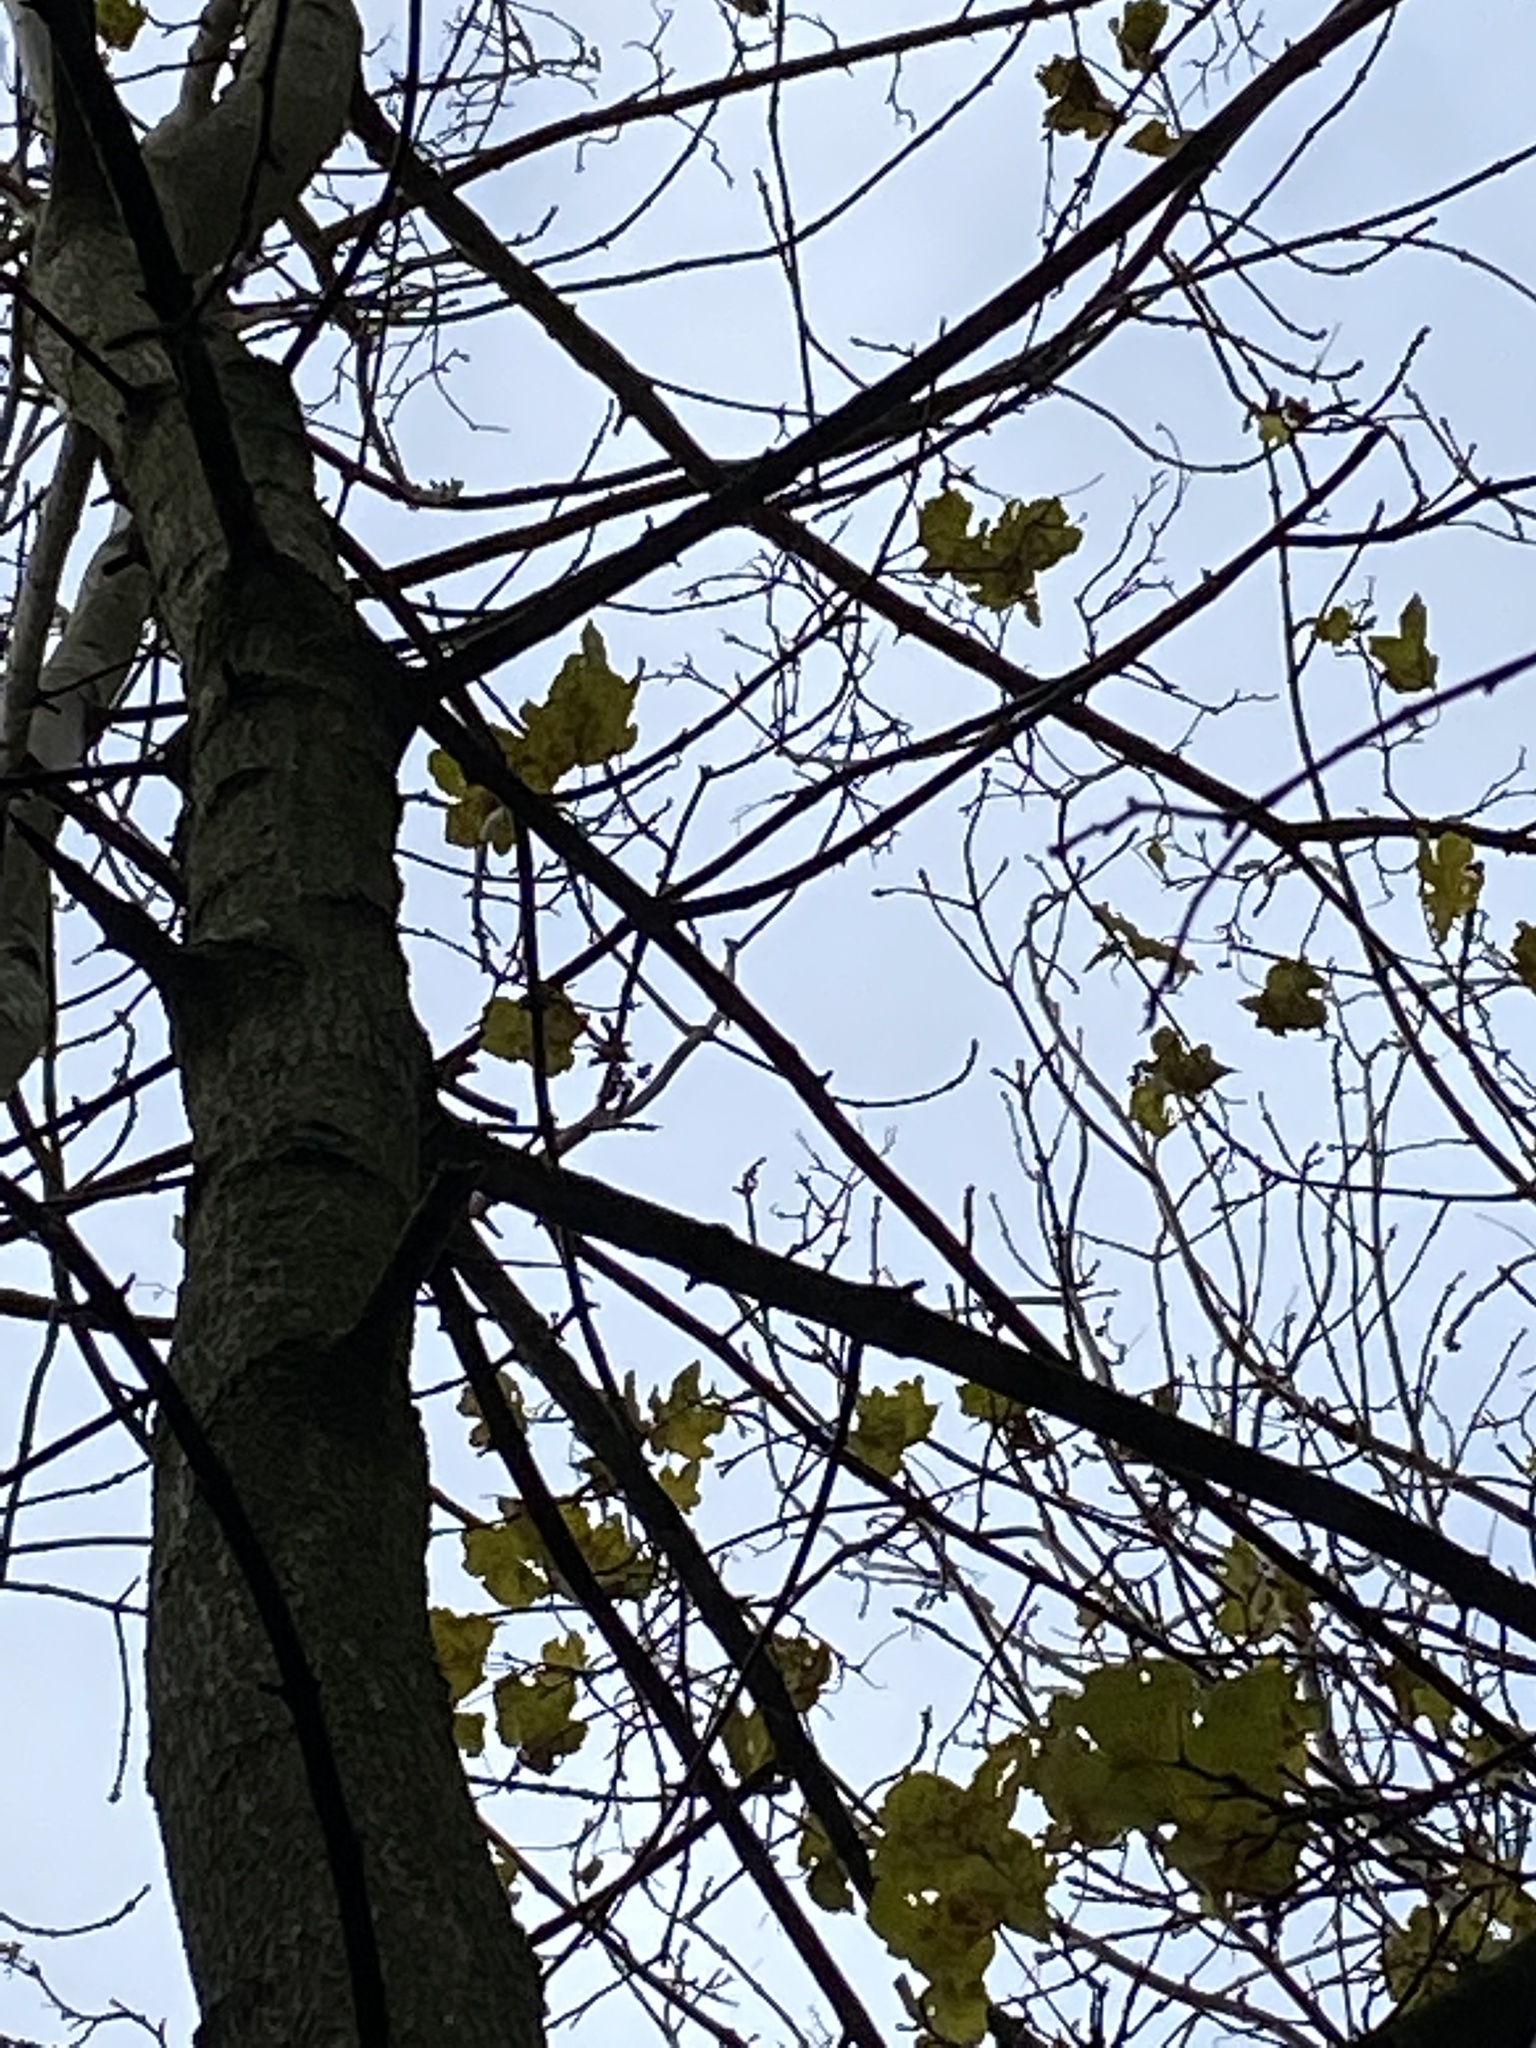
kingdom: Plantae
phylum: Tracheophyta
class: Magnoliopsida
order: Sapindales
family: Sapindaceae
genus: Acer
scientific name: Acer campestre
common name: Field maple
